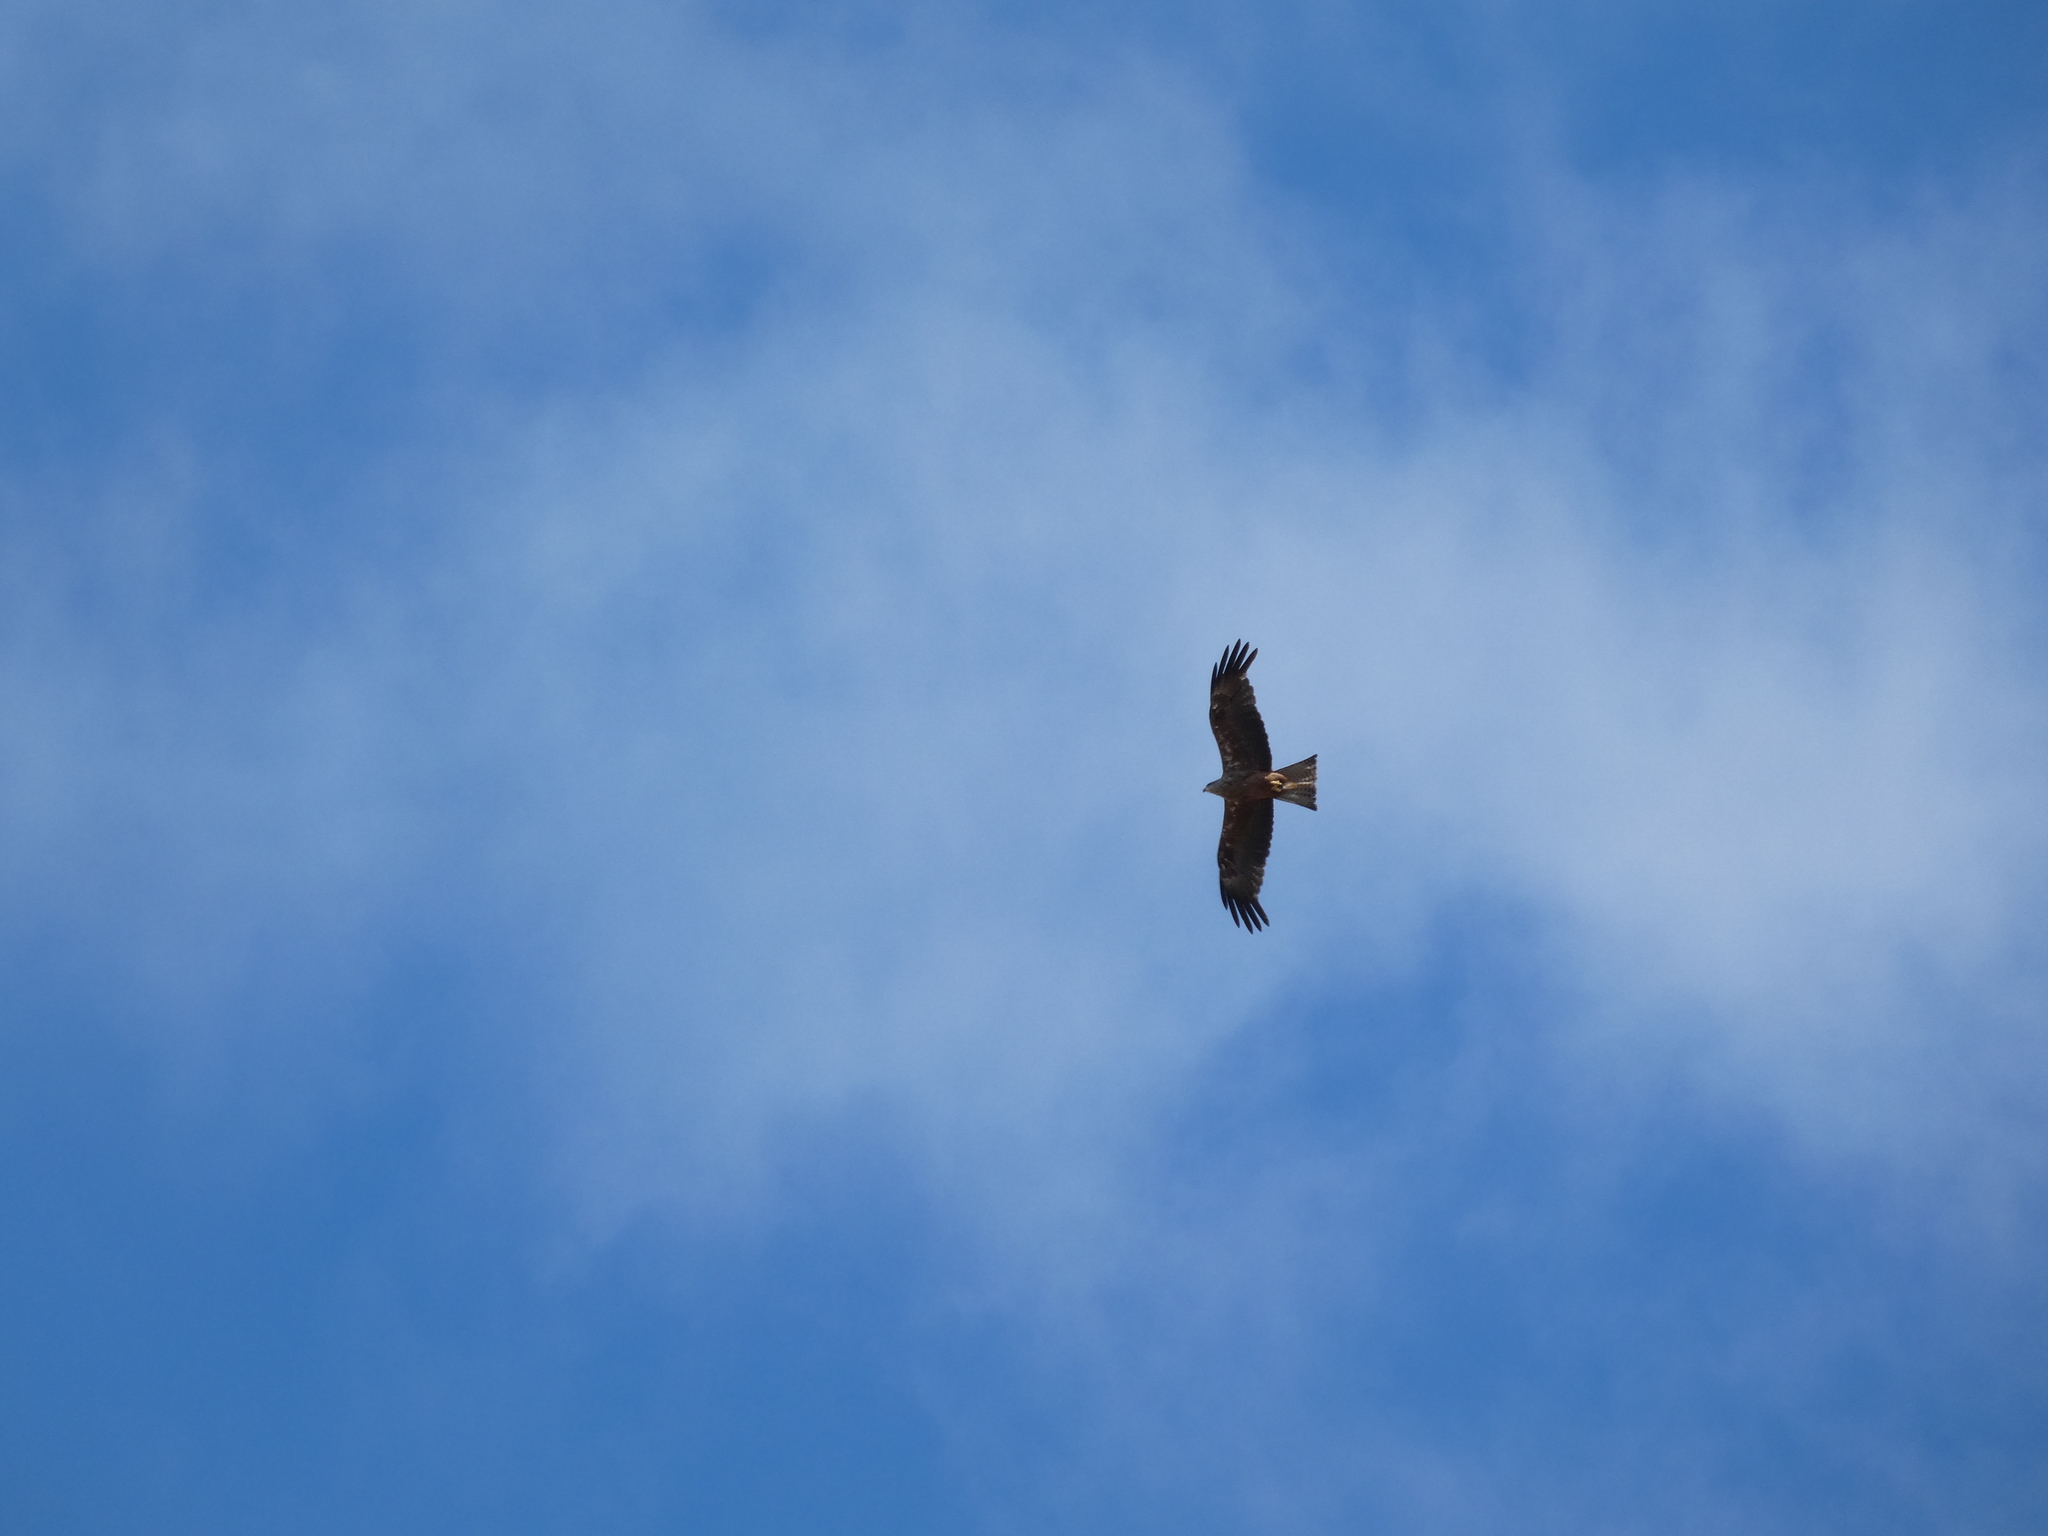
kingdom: Animalia
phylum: Chordata
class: Aves
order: Accipitriformes
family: Accipitridae
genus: Milvus
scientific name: Milvus migrans
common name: Black kite
